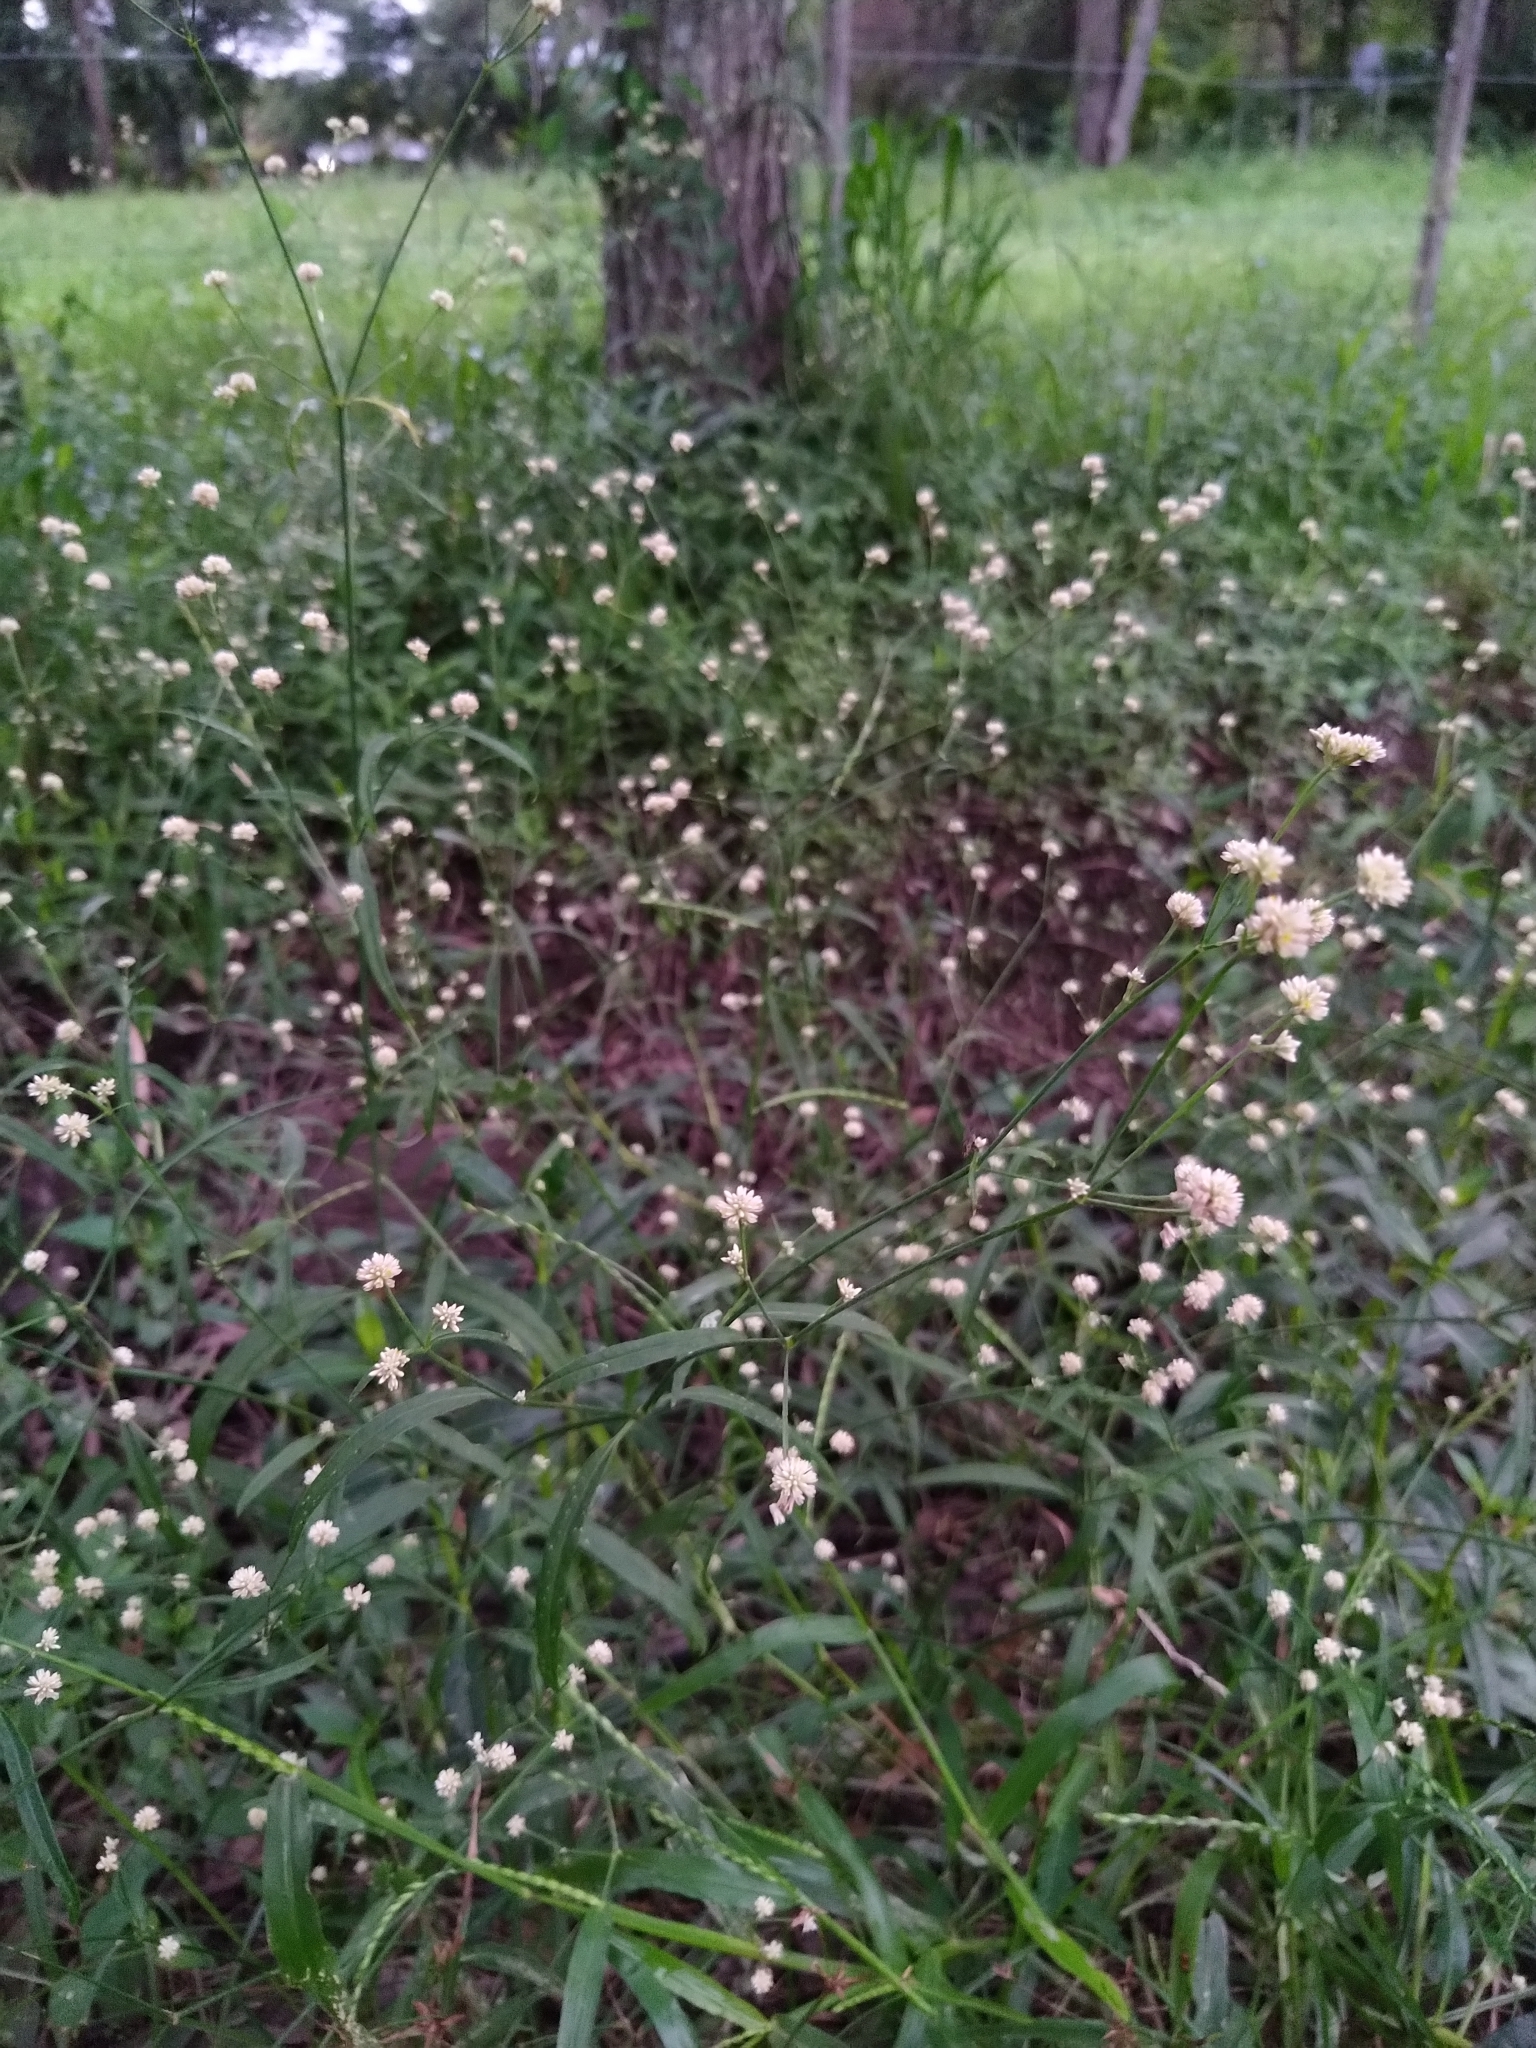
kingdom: Plantae
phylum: Tracheophyta
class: Magnoliopsida
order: Caryophyllales
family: Amaranthaceae
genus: Pfaffia
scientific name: Pfaffia glomerata
